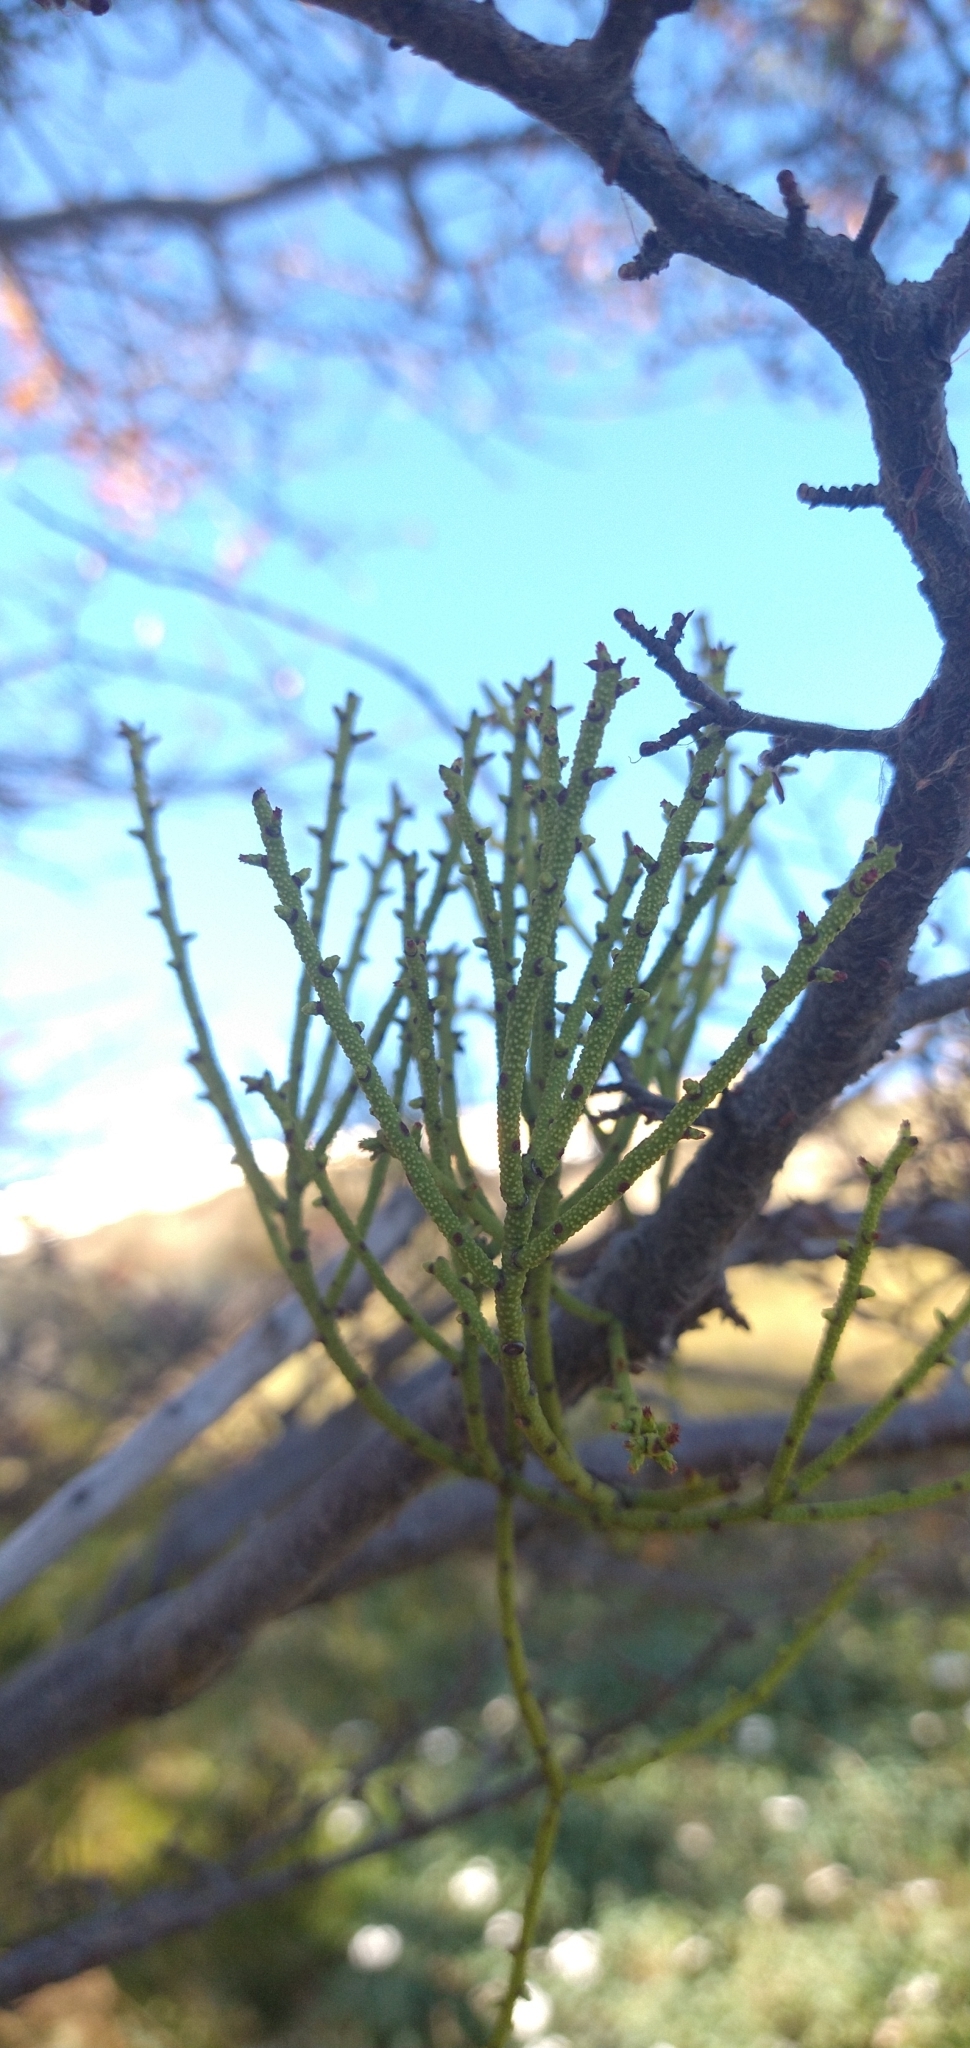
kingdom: Plantae
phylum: Tracheophyta
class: Magnoliopsida
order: Santalales
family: Misodendraceae
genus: Misodendrum
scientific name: Misodendrum punctulatum
